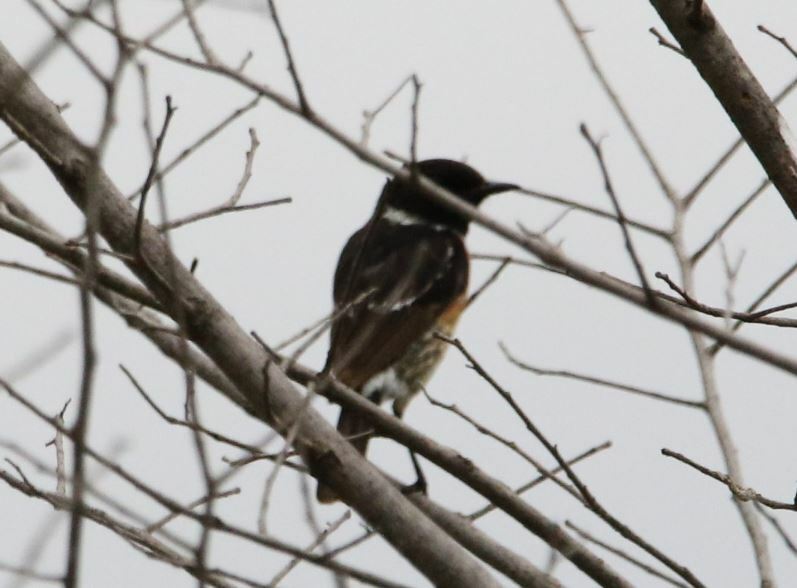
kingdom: Animalia
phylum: Chordata
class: Aves
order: Passeriformes
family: Muscicapidae
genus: Saxicola
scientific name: Saxicola rubicola
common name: European stonechat
